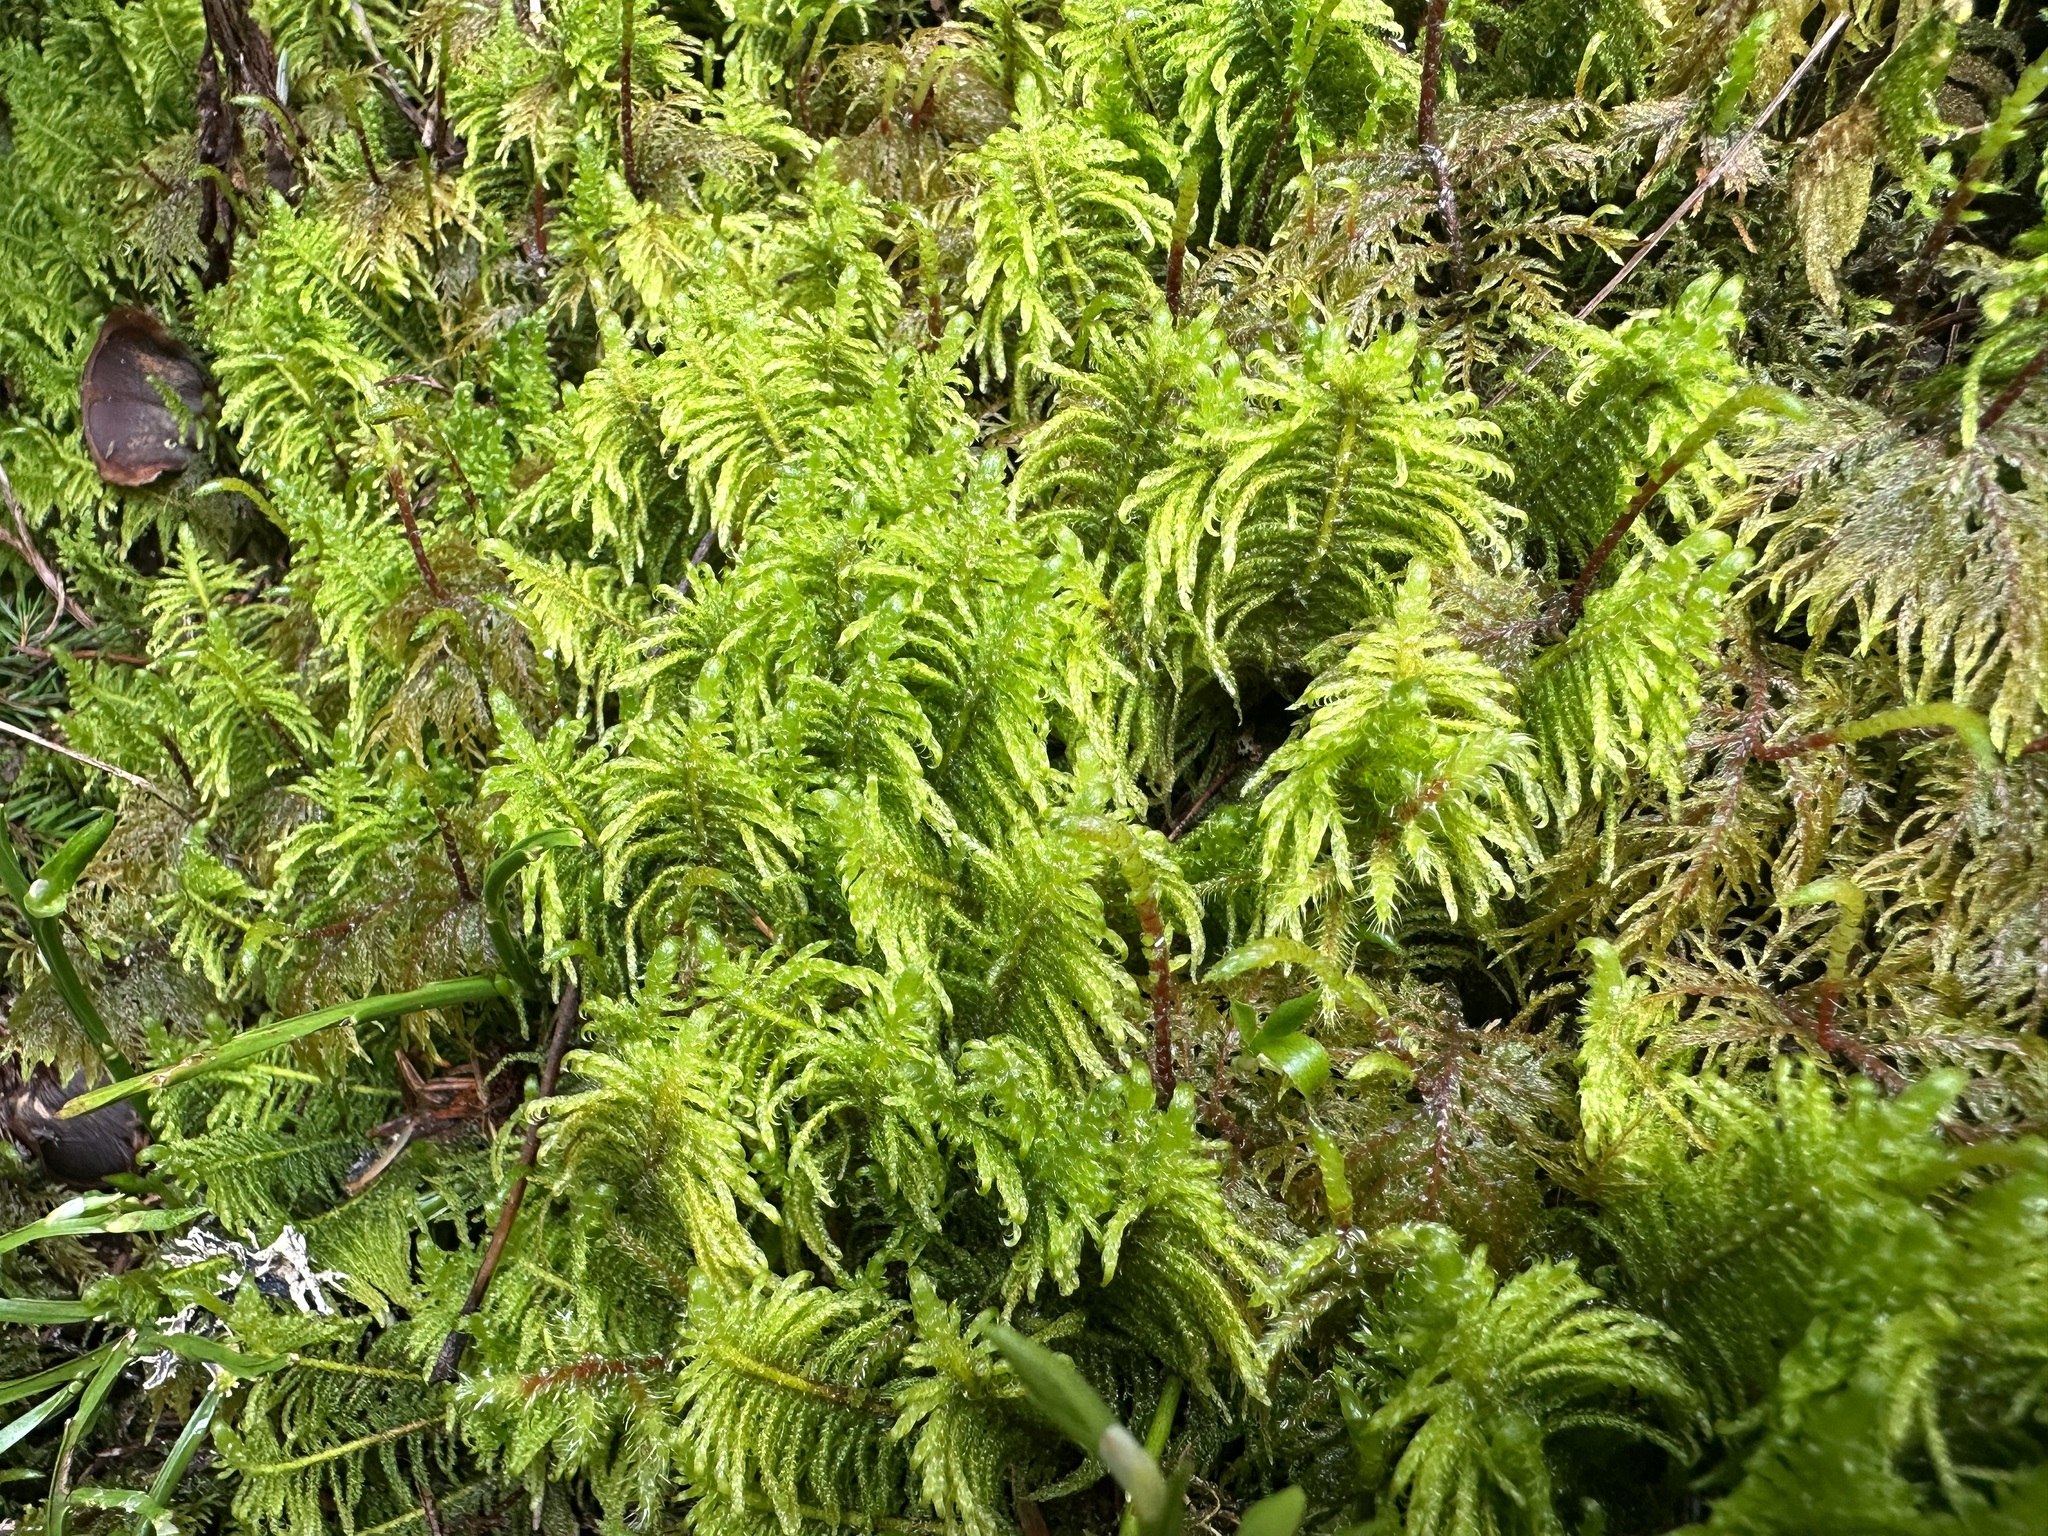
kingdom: Plantae
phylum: Bryophyta
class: Bryopsida
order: Hypnales
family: Pylaisiaceae
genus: Ptilium
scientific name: Ptilium crista-castrensis
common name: Knight's plume moss
